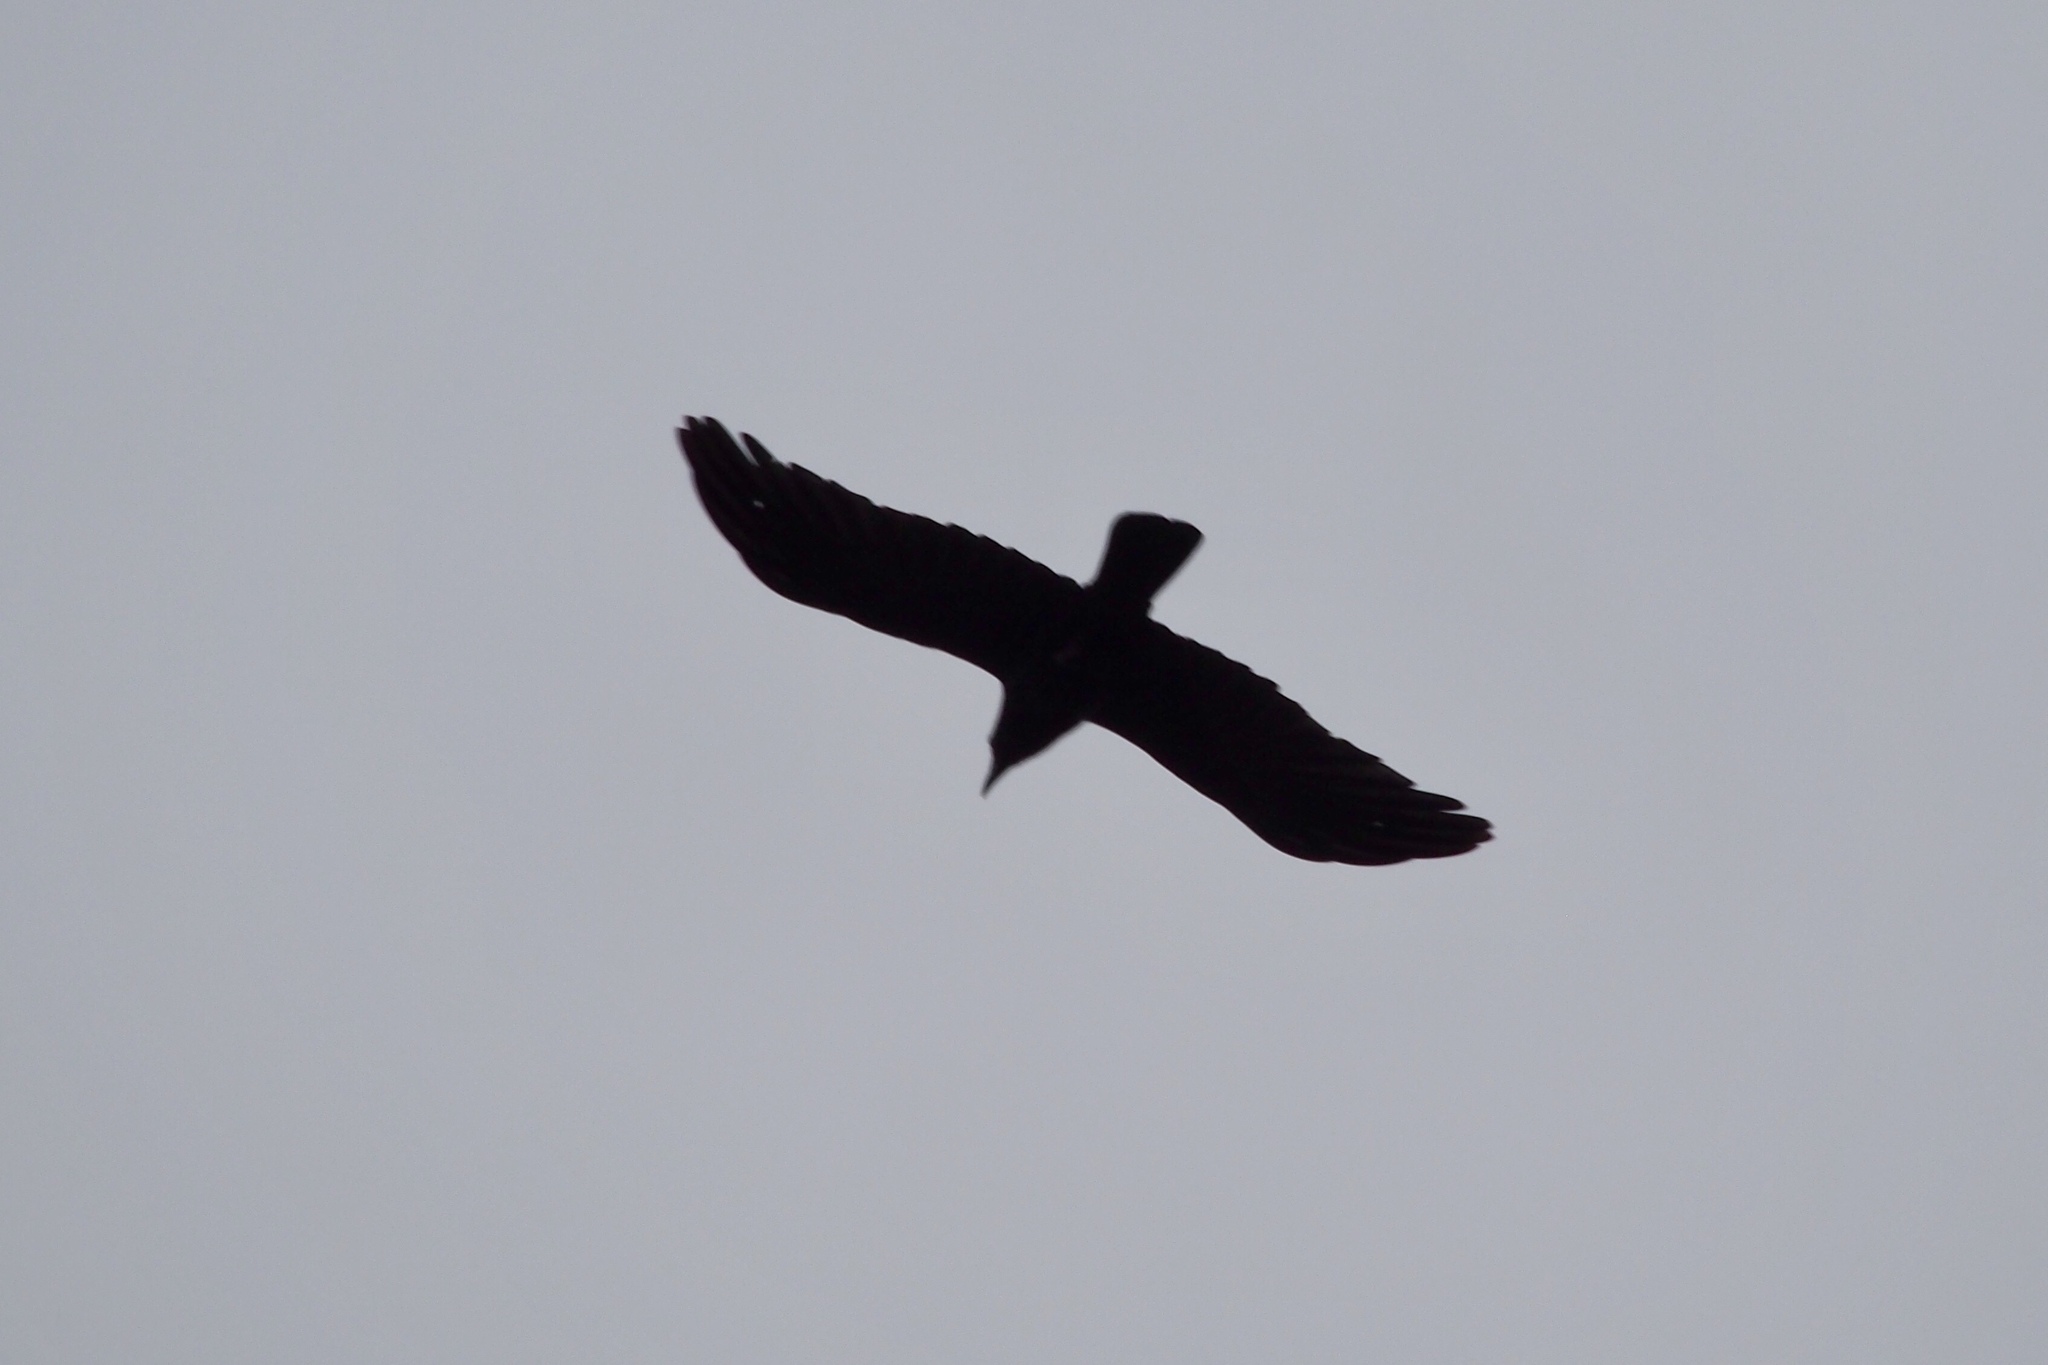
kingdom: Animalia
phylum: Chordata
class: Aves
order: Passeriformes
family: Corvidae
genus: Corvus
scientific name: Corvus brachyrhynchos
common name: American crow
